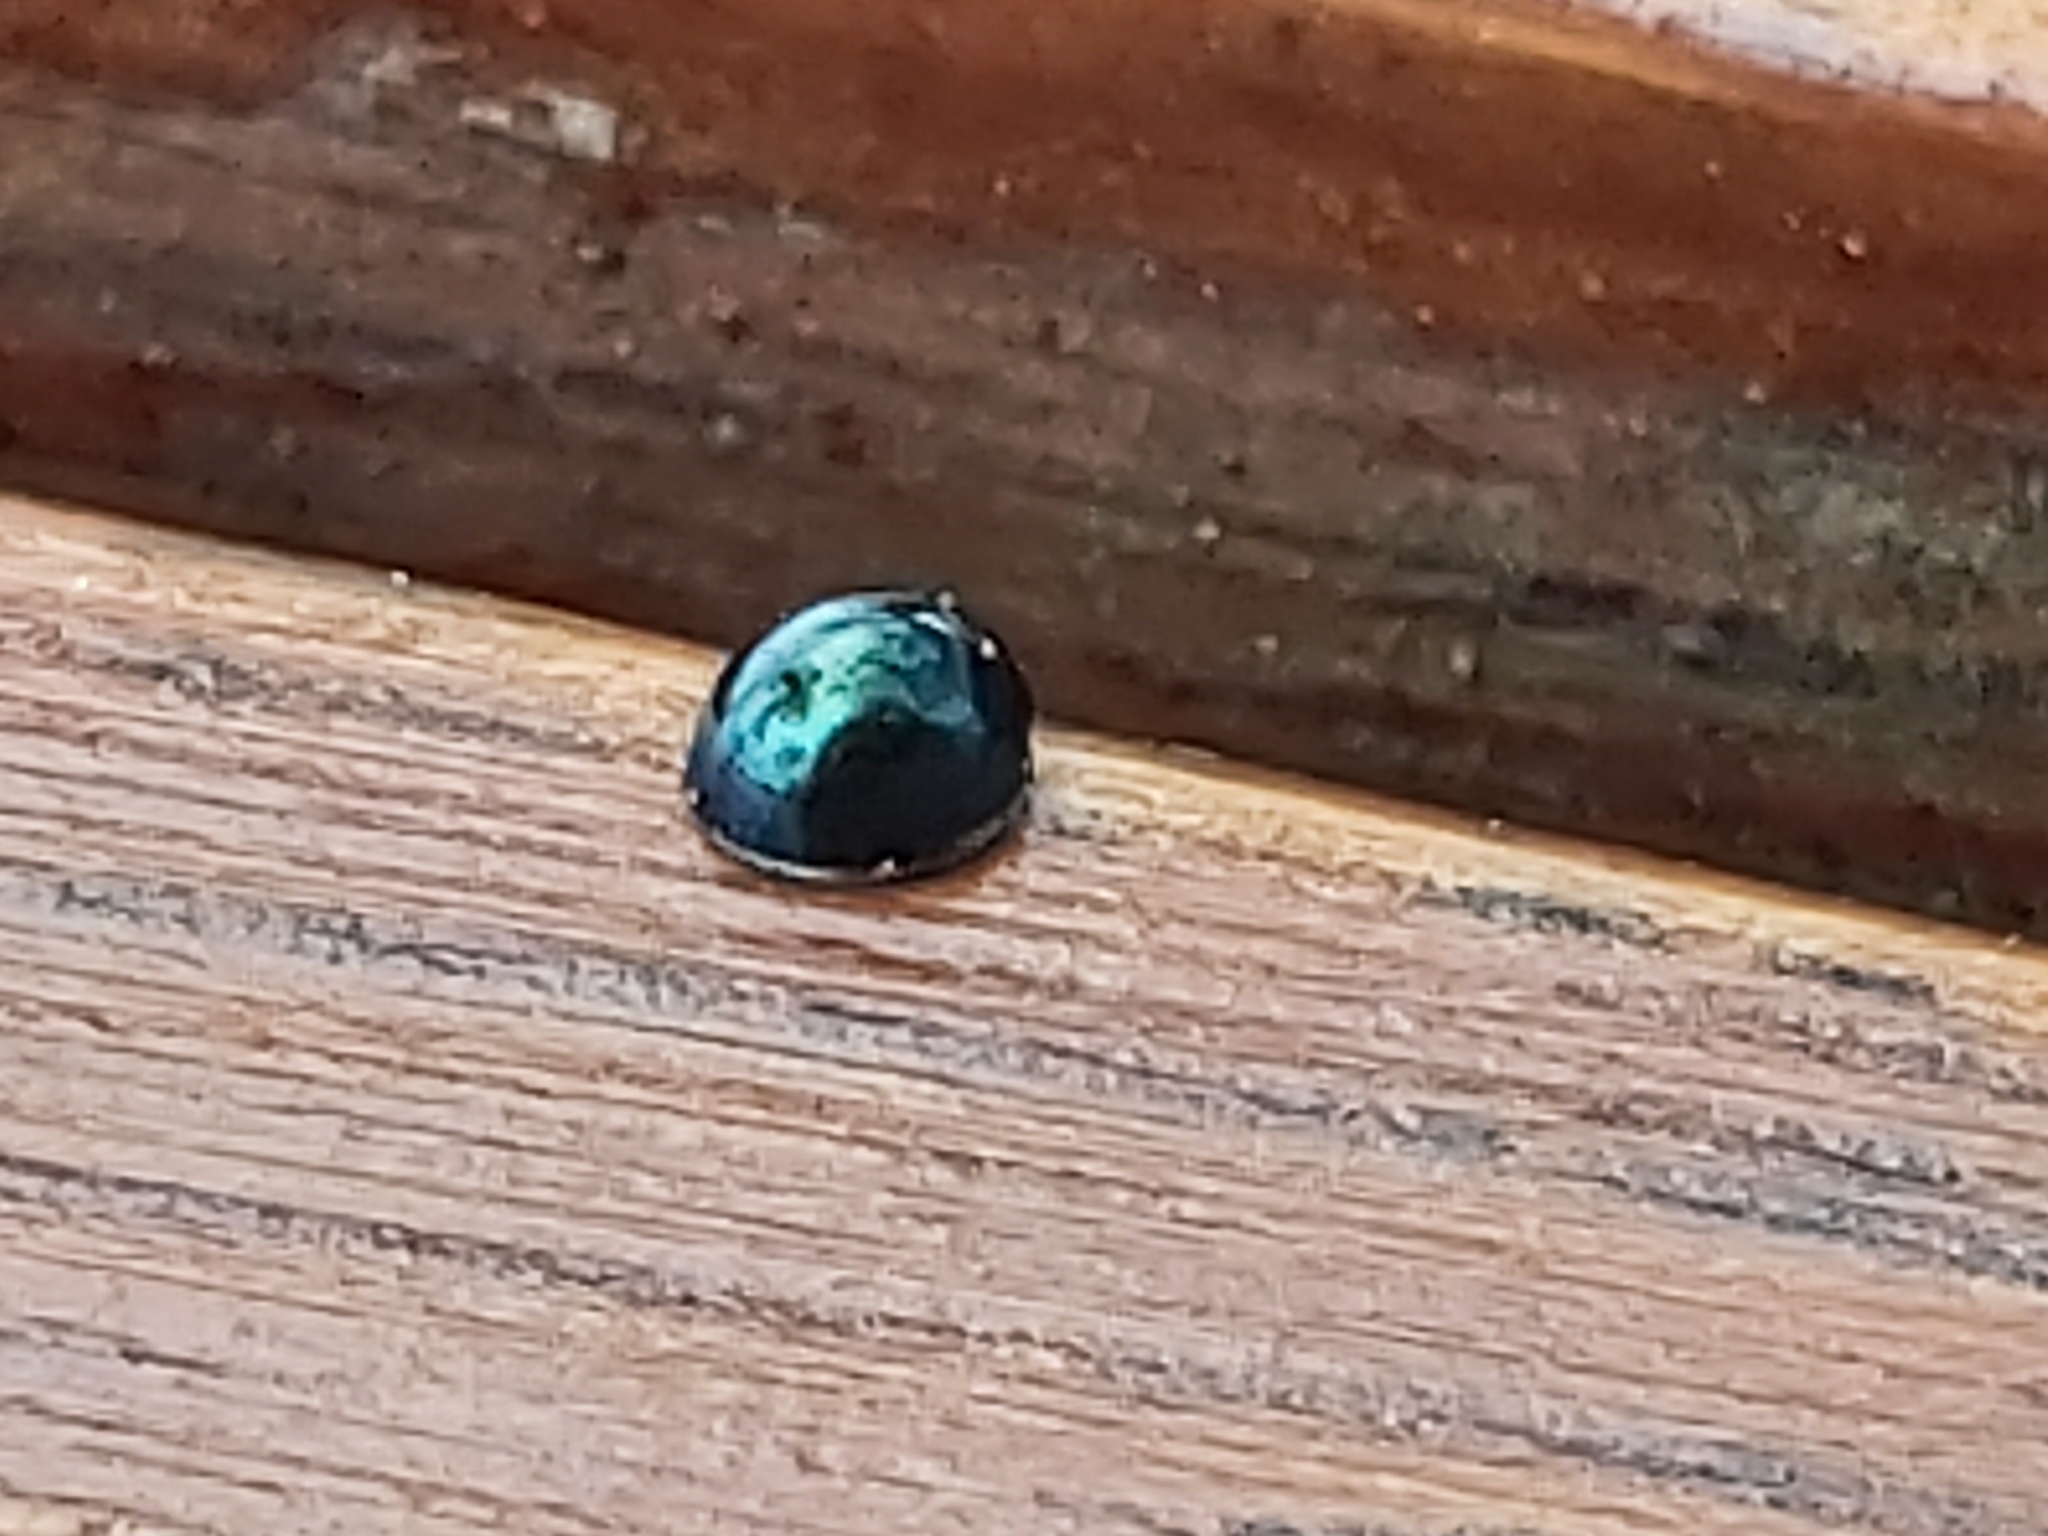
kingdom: Animalia
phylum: Arthropoda
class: Insecta
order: Coleoptera
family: Coccinellidae
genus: Halmus
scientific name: Halmus chalybeus
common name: Steel blue ladybird beetle
